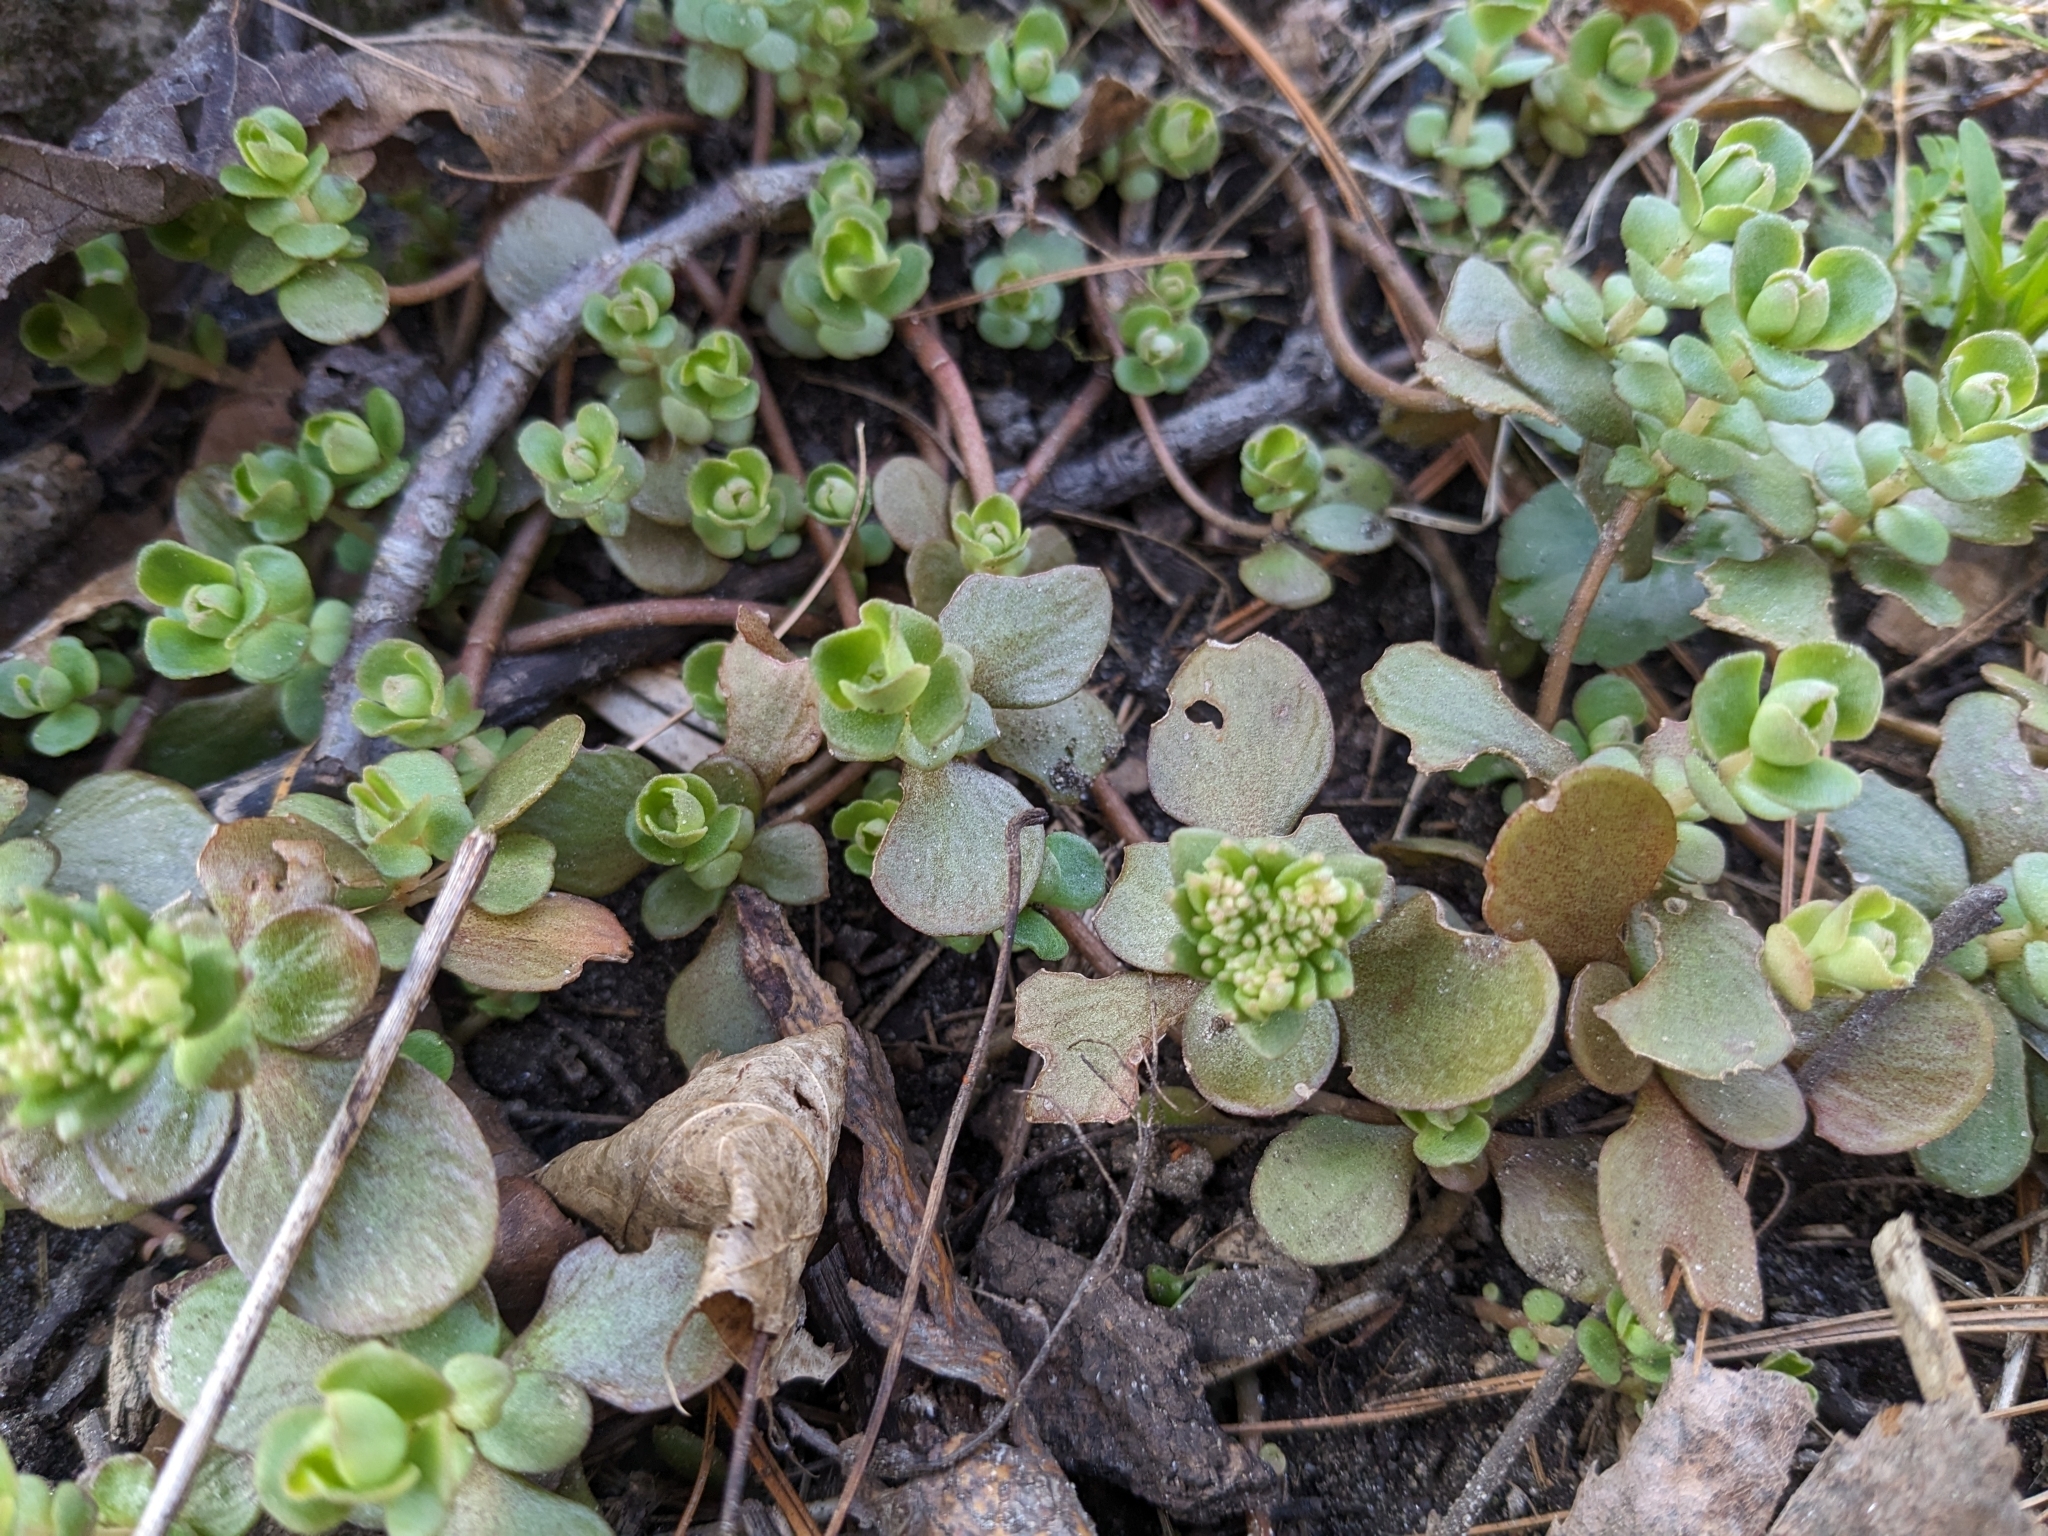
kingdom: Plantae
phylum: Tracheophyta
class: Magnoliopsida
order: Saxifragales
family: Crassulaceae
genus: Sedum
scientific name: Sedum ternatum
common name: Wild stonecrop
